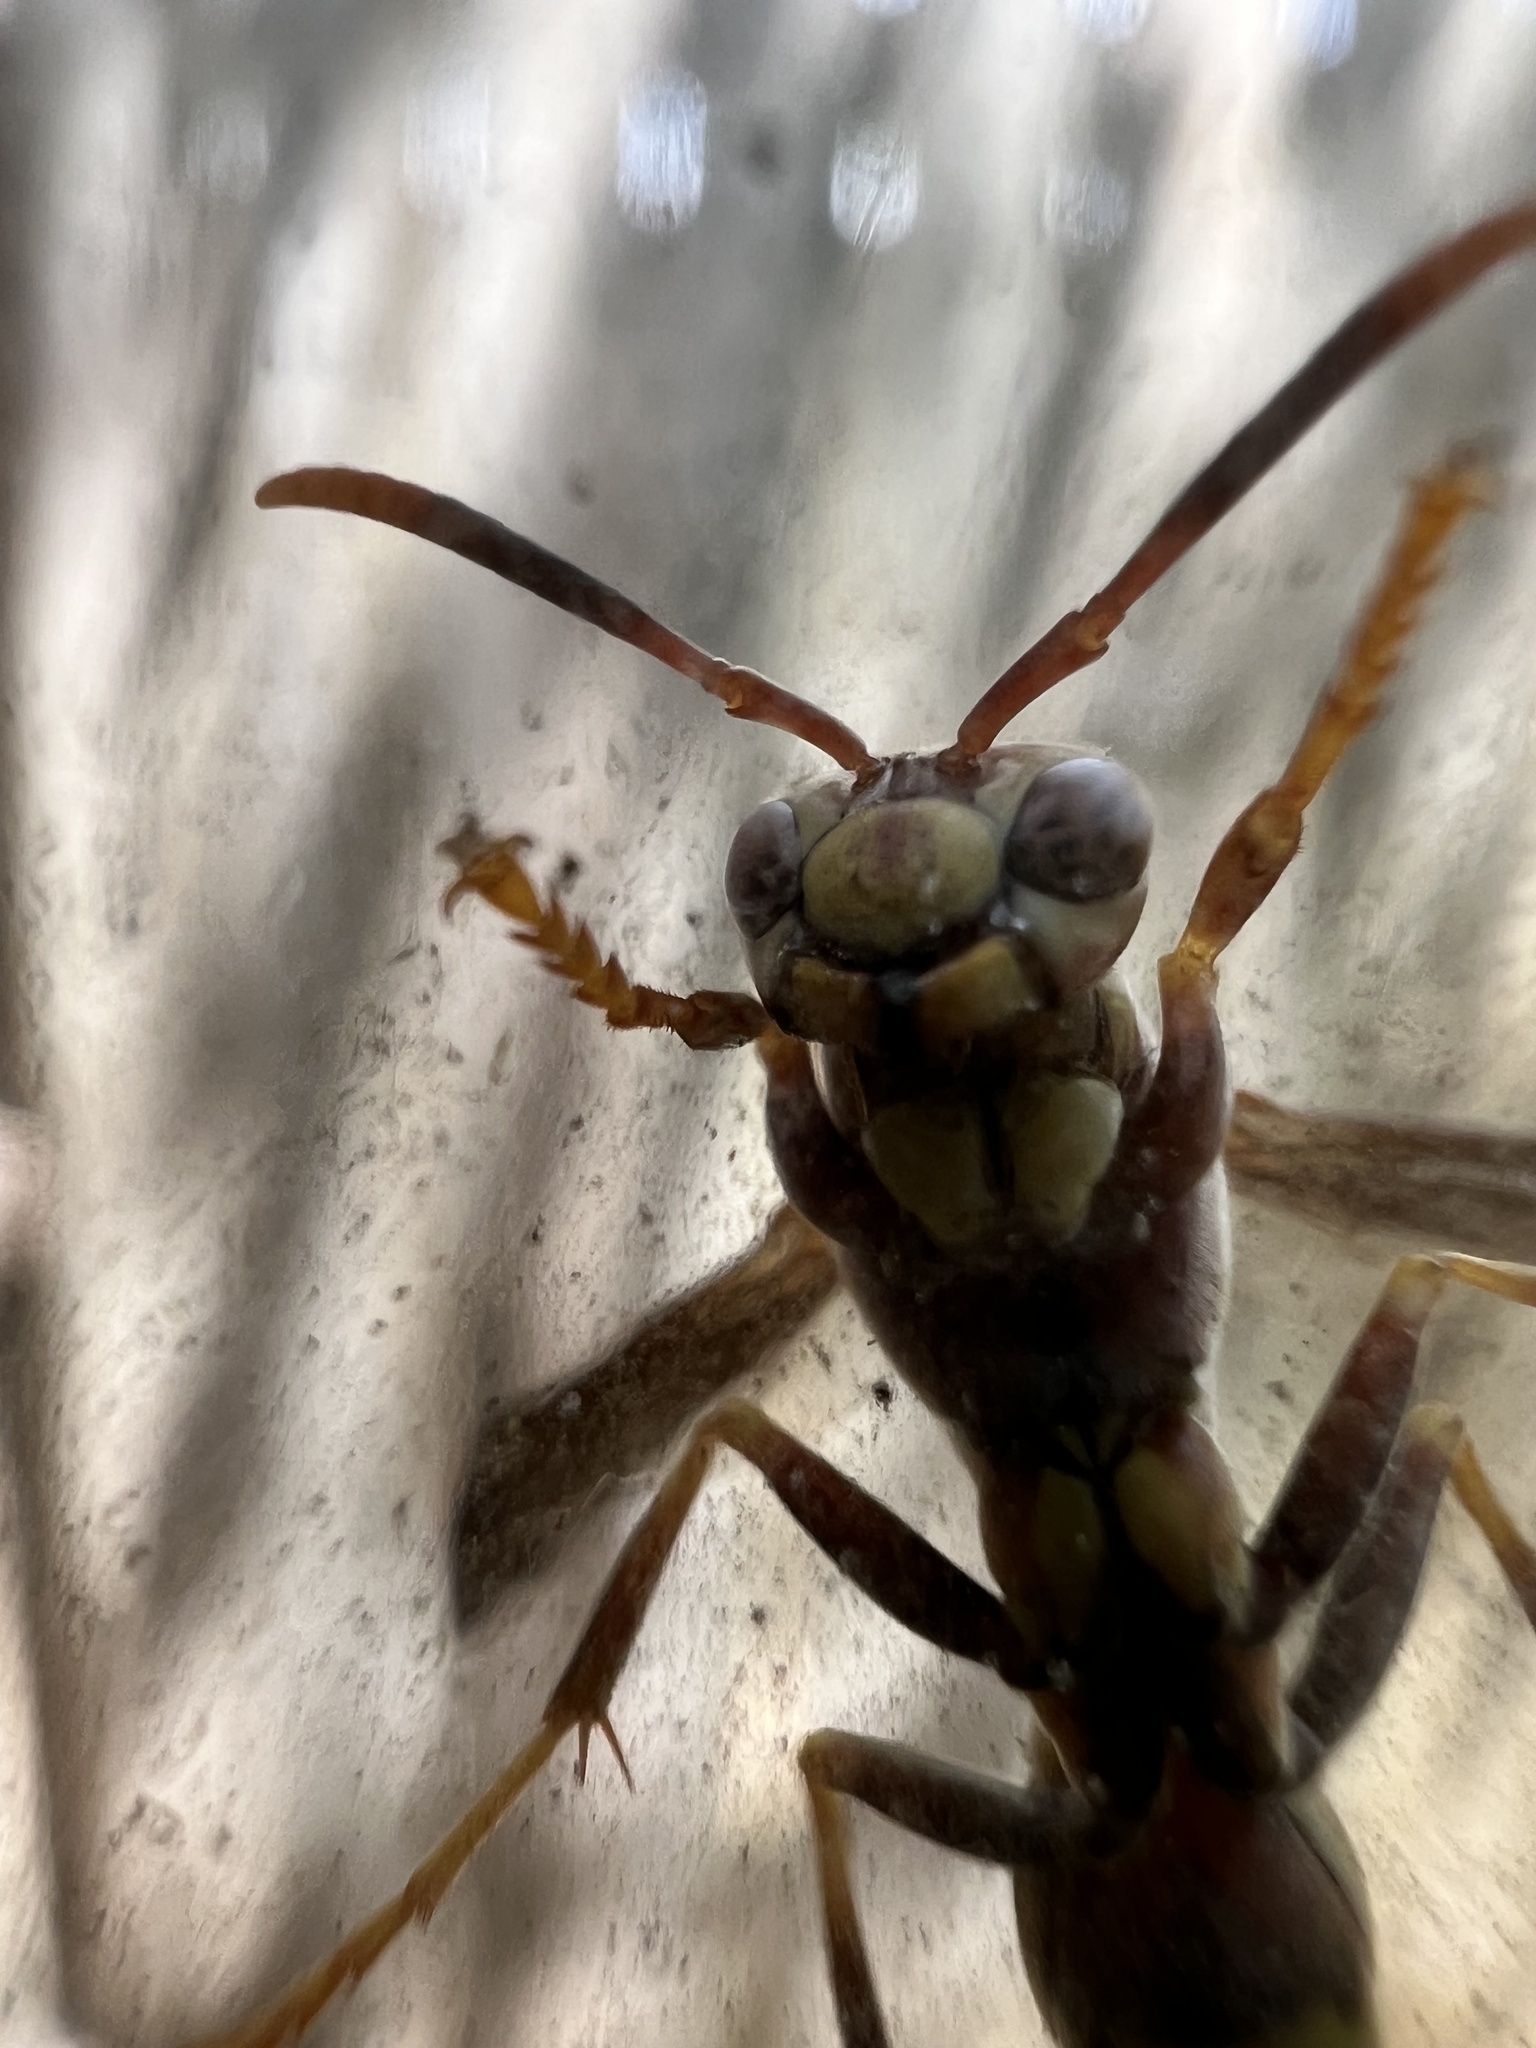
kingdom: Animalia
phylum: Arthropoda
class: Insecta
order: Hymenoptera
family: Eumenidae
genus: Polistes
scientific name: Polistes exclamans
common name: Paper wasp
